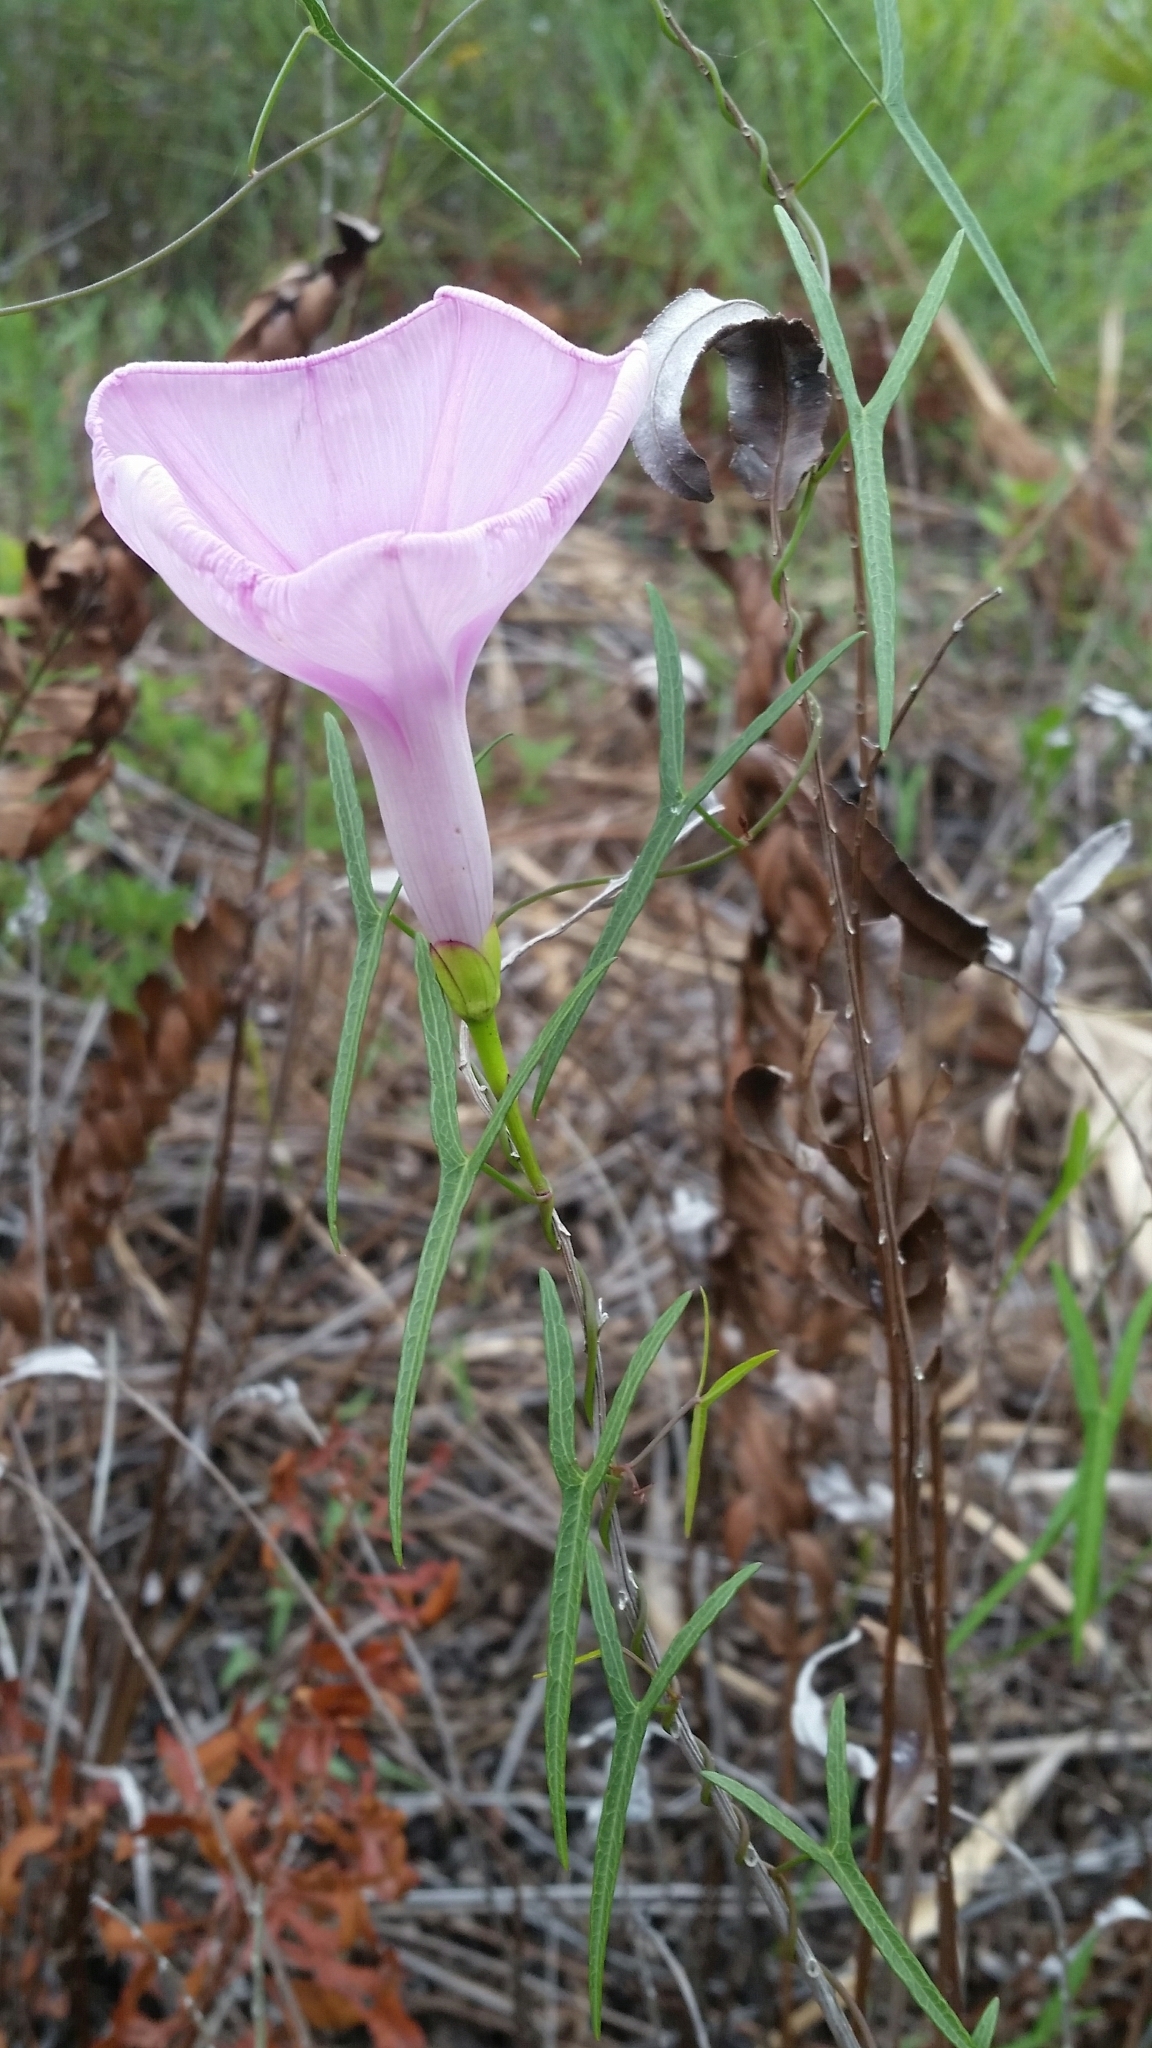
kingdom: Plantae
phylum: Tracheophyta
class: Magnoliopsida
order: Solanales
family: Convolvulaceae
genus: Ipomoea
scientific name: Ipomoea sagittata
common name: Saltmarsh morning glory
